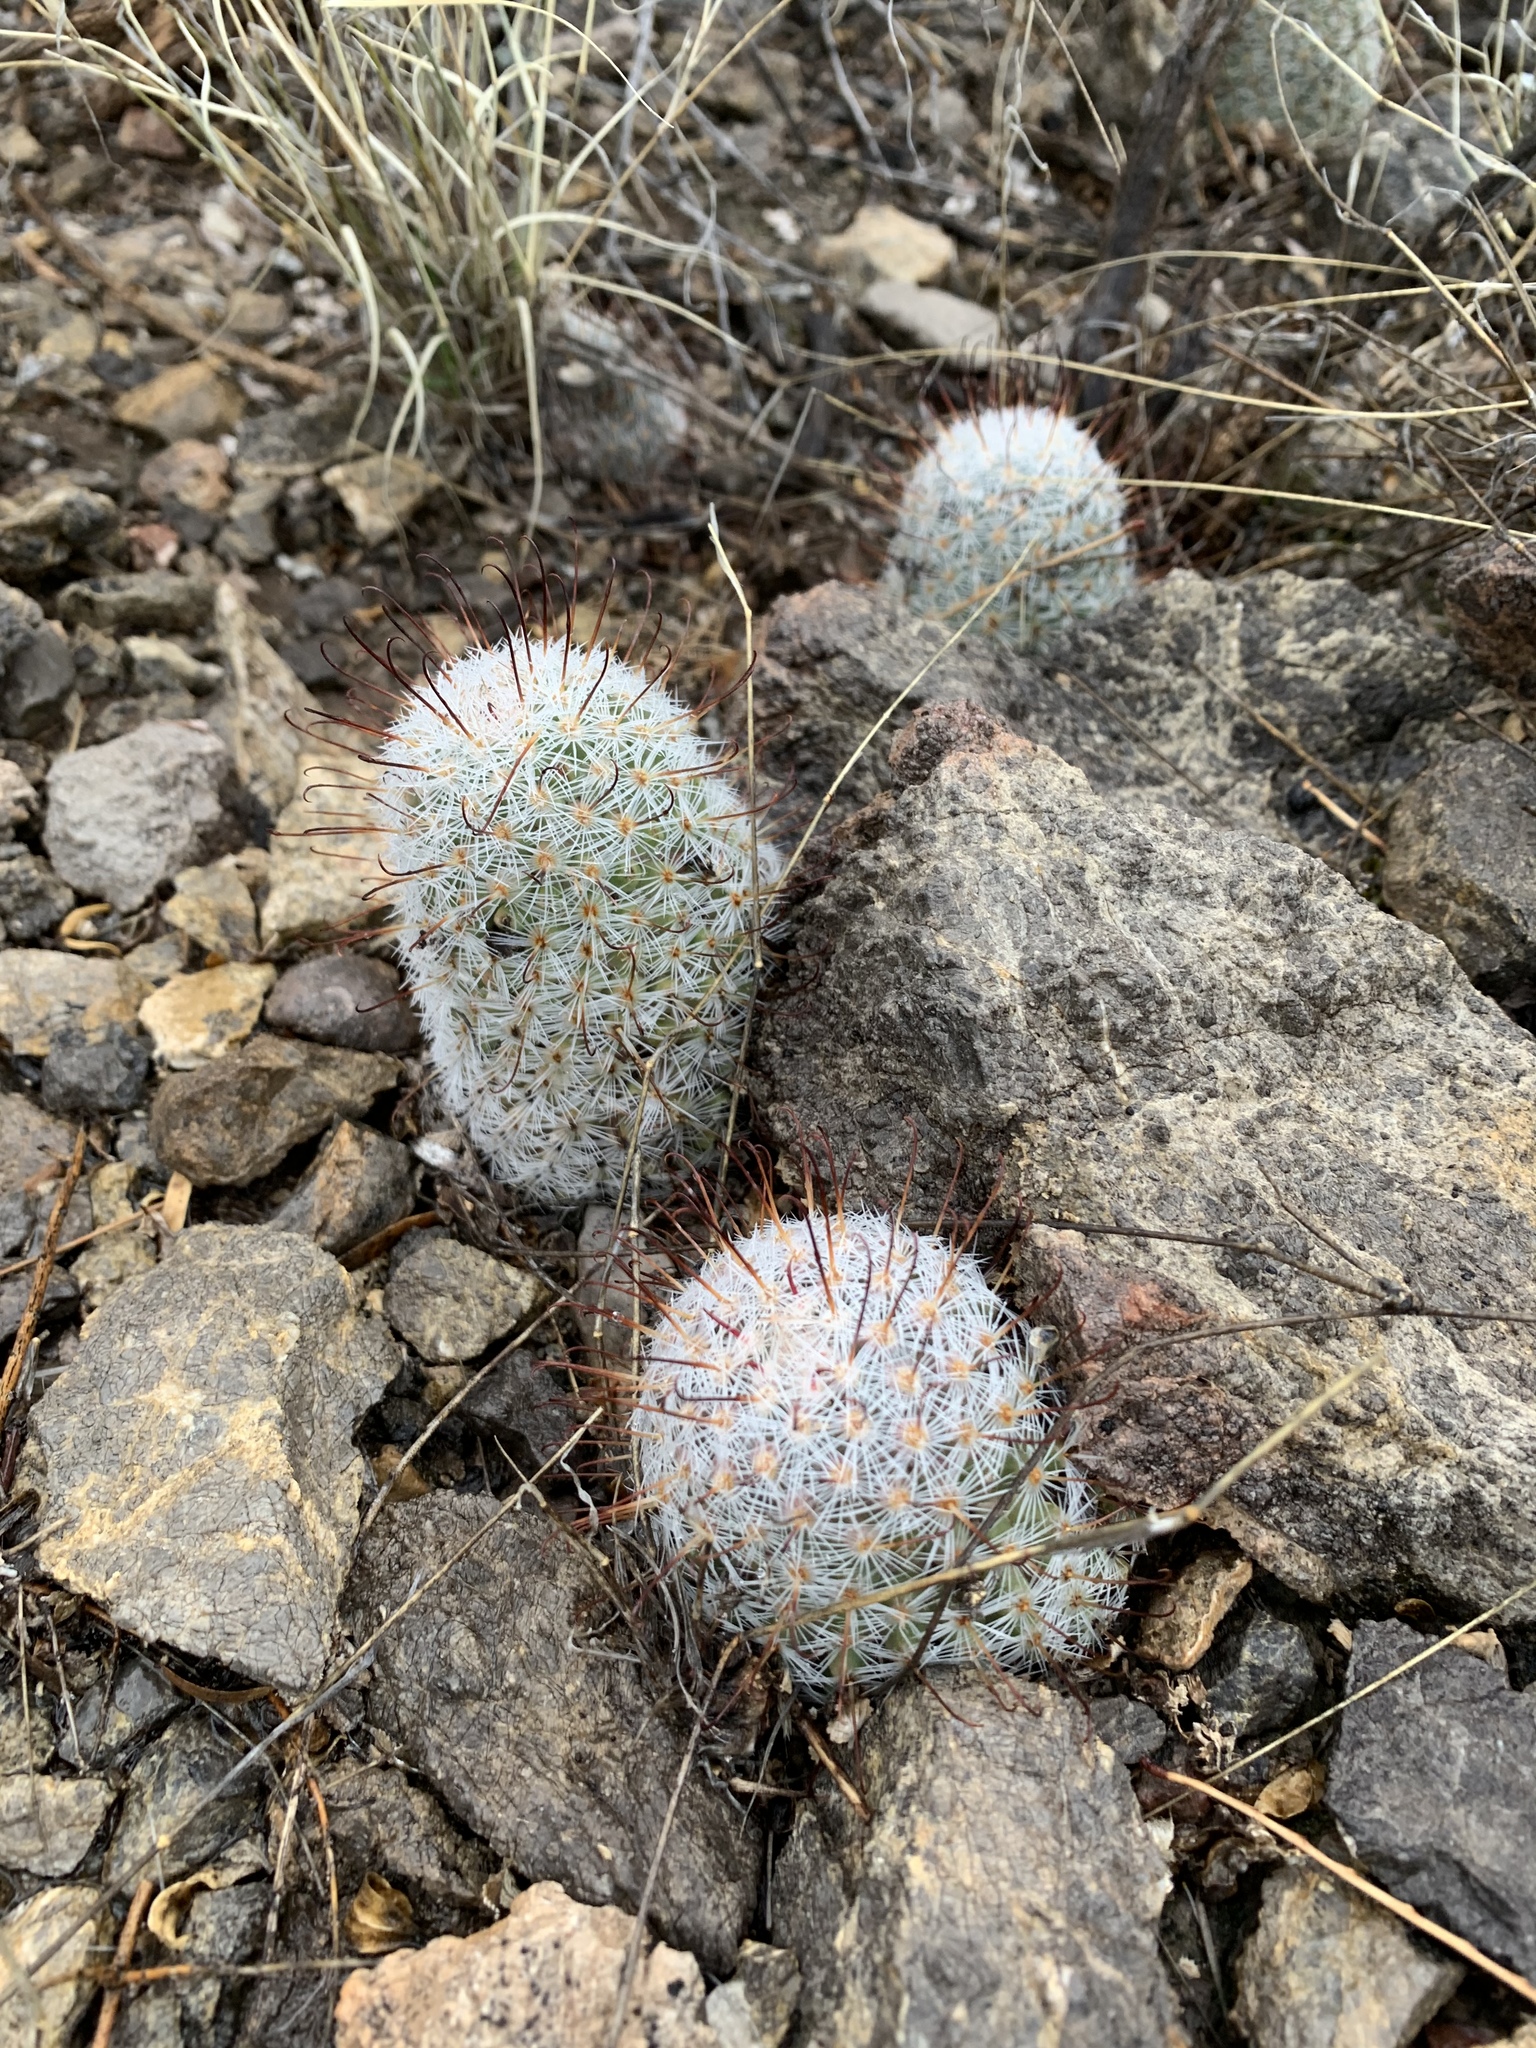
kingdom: Plantae
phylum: Tracheophyta
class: Magnoliopsida
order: Caryophyllales
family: Cactaceae
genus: Cochemiea
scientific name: Cochemiea grahamii
